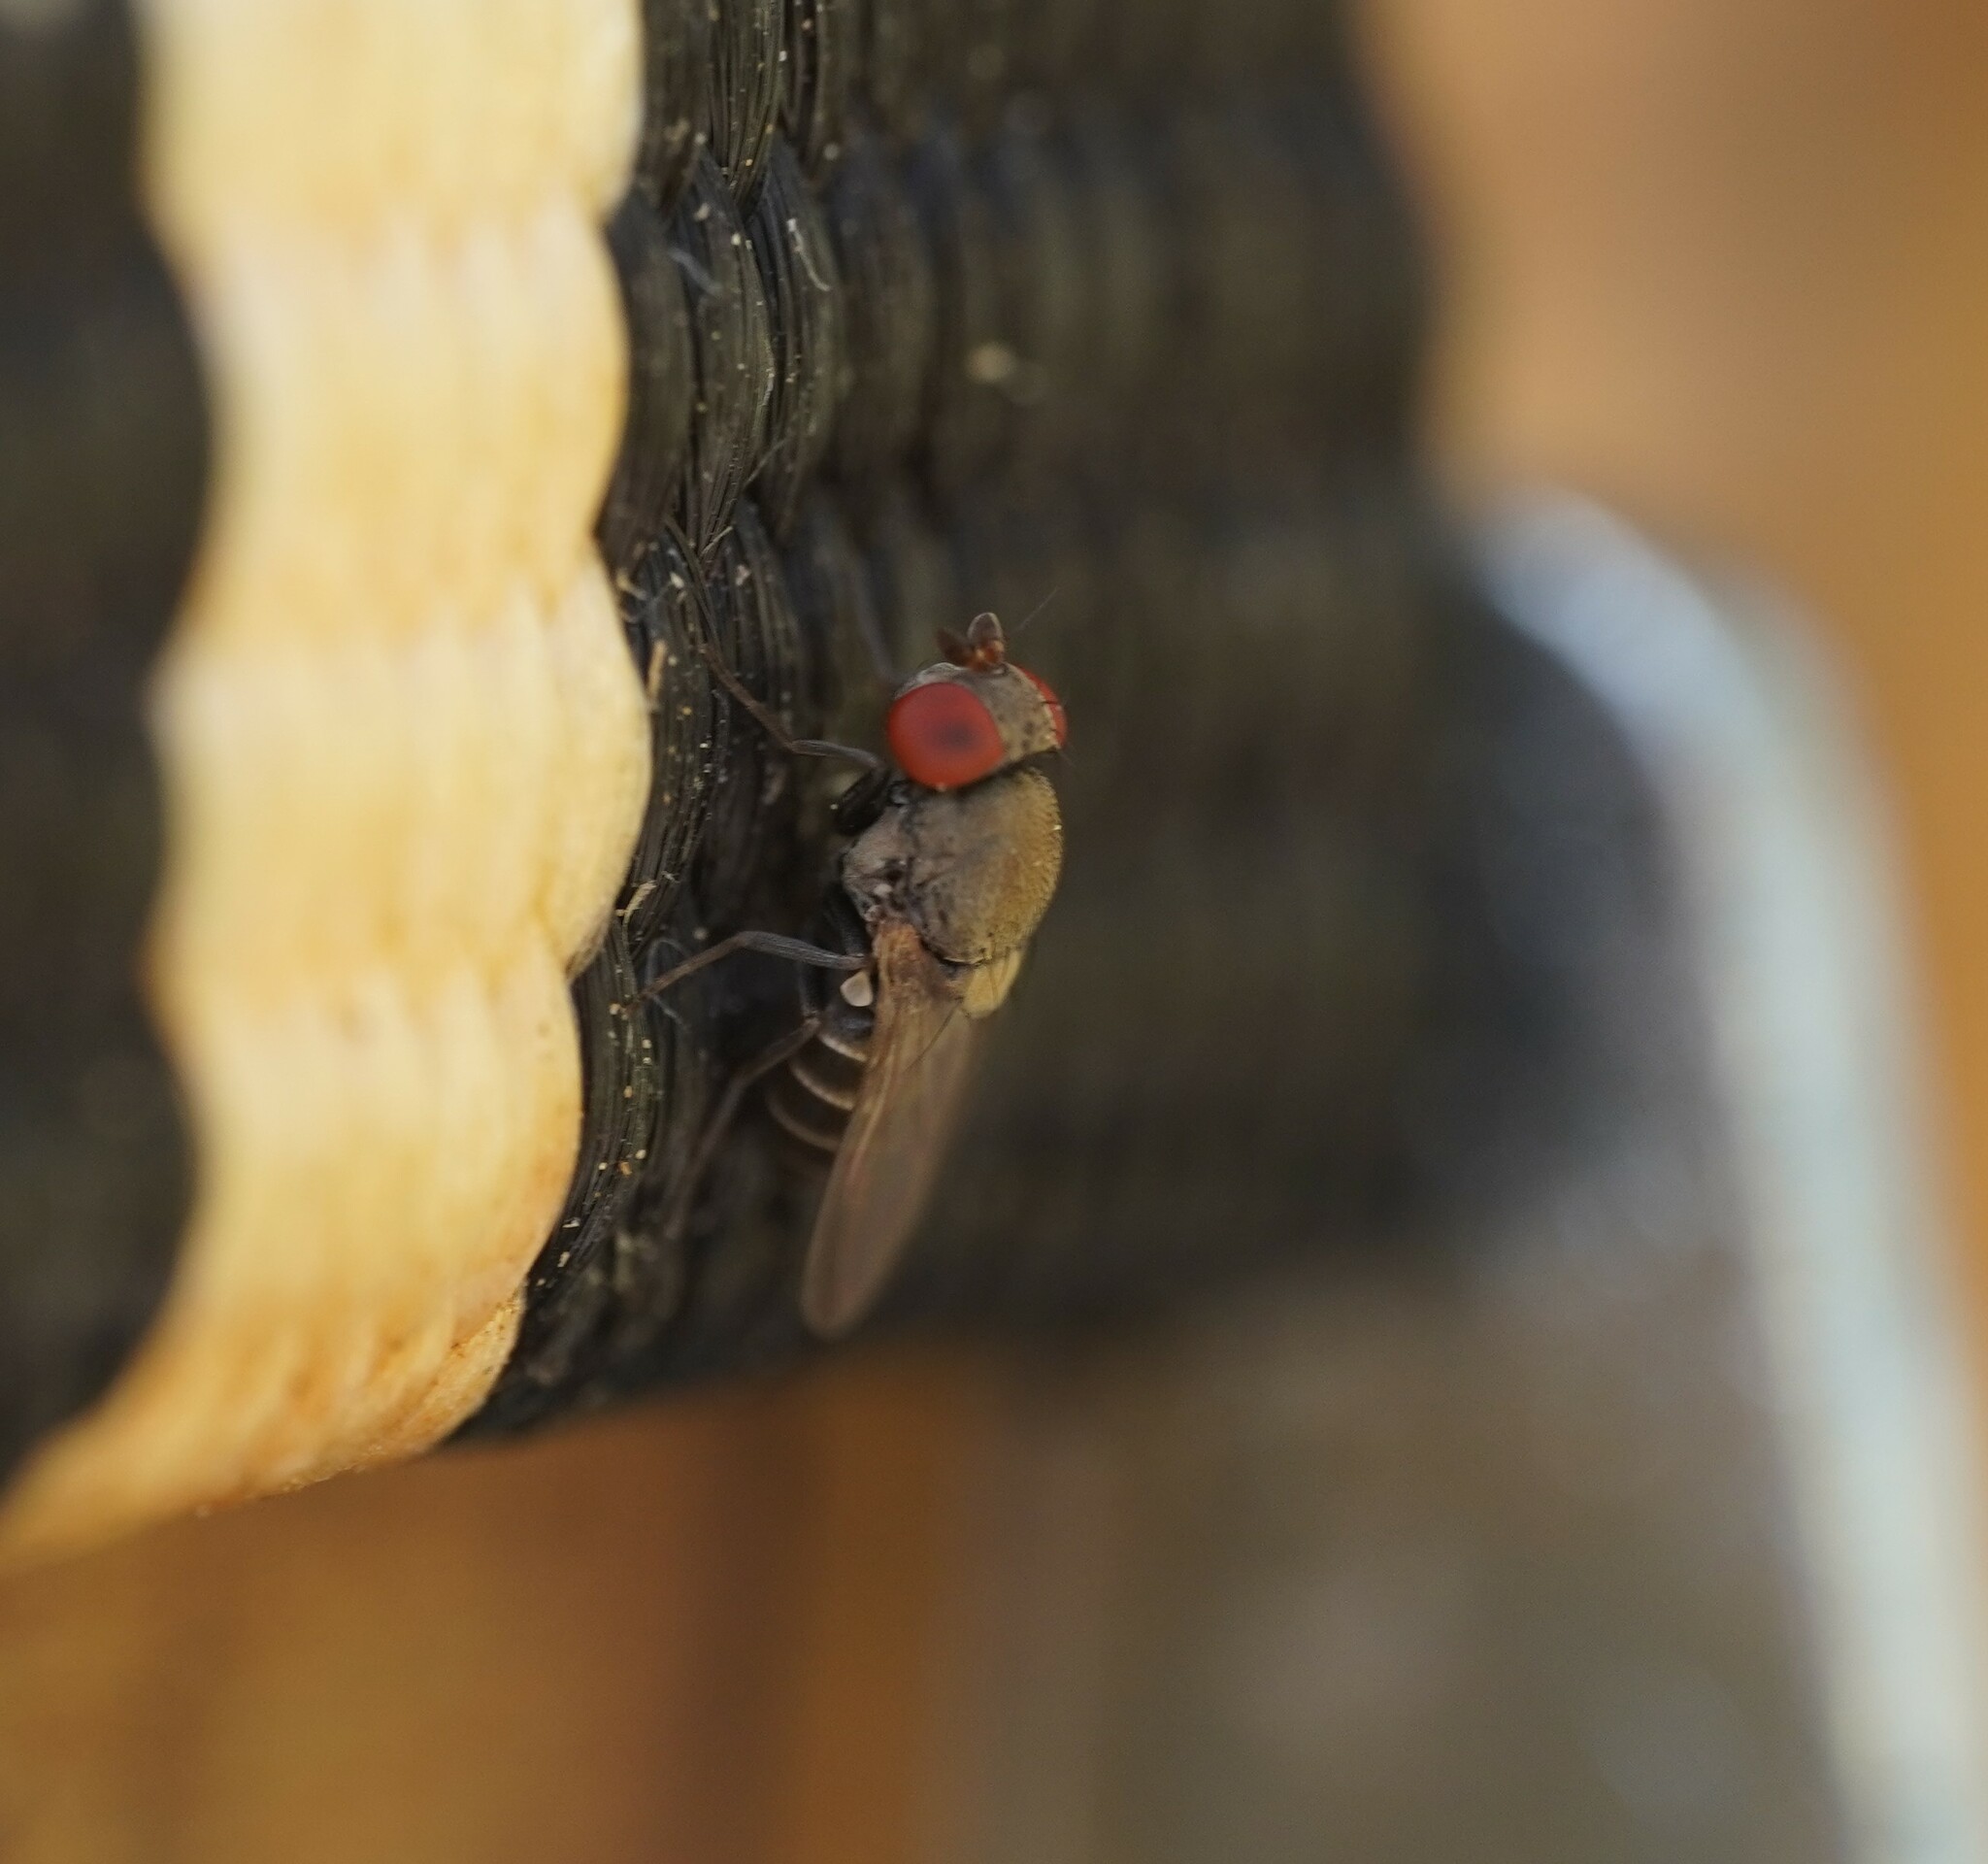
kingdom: Animalia
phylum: Arthropoda
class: Insecta
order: Diptera
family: Drosophilidae
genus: Cacoxenus
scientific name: Cacoxenus indagator
